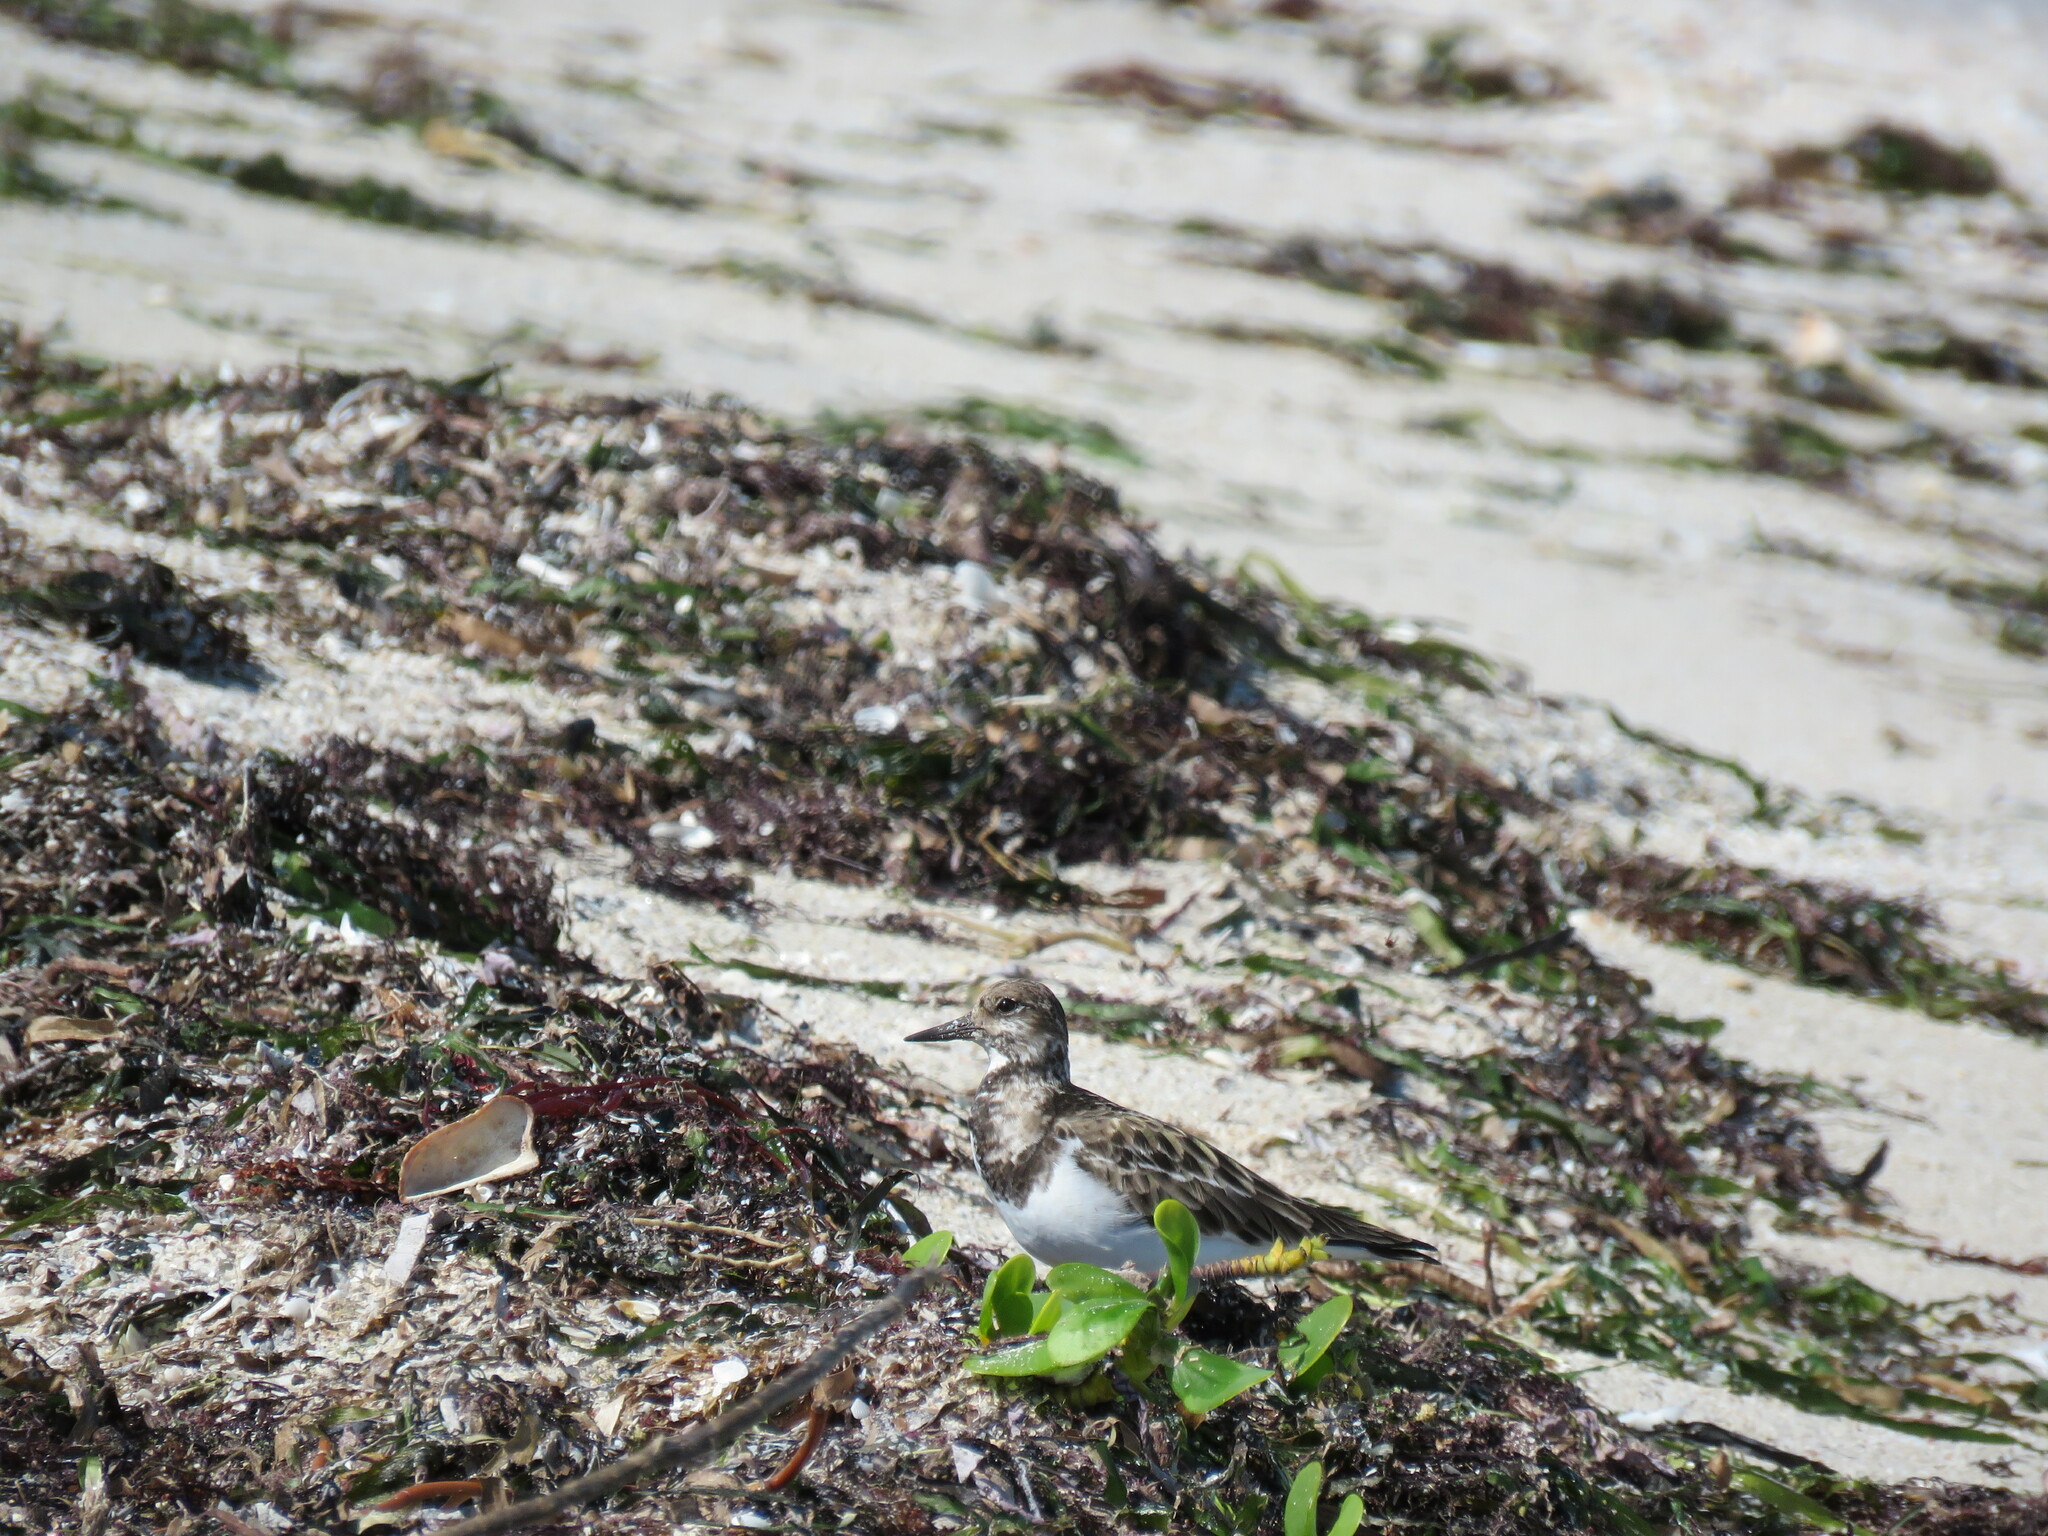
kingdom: Animalia
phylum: Chordata
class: Aves
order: Charadriiformes
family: Scolopacidae
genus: Arenaria
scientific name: Arenaria interpres
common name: Ruddy turnstone
